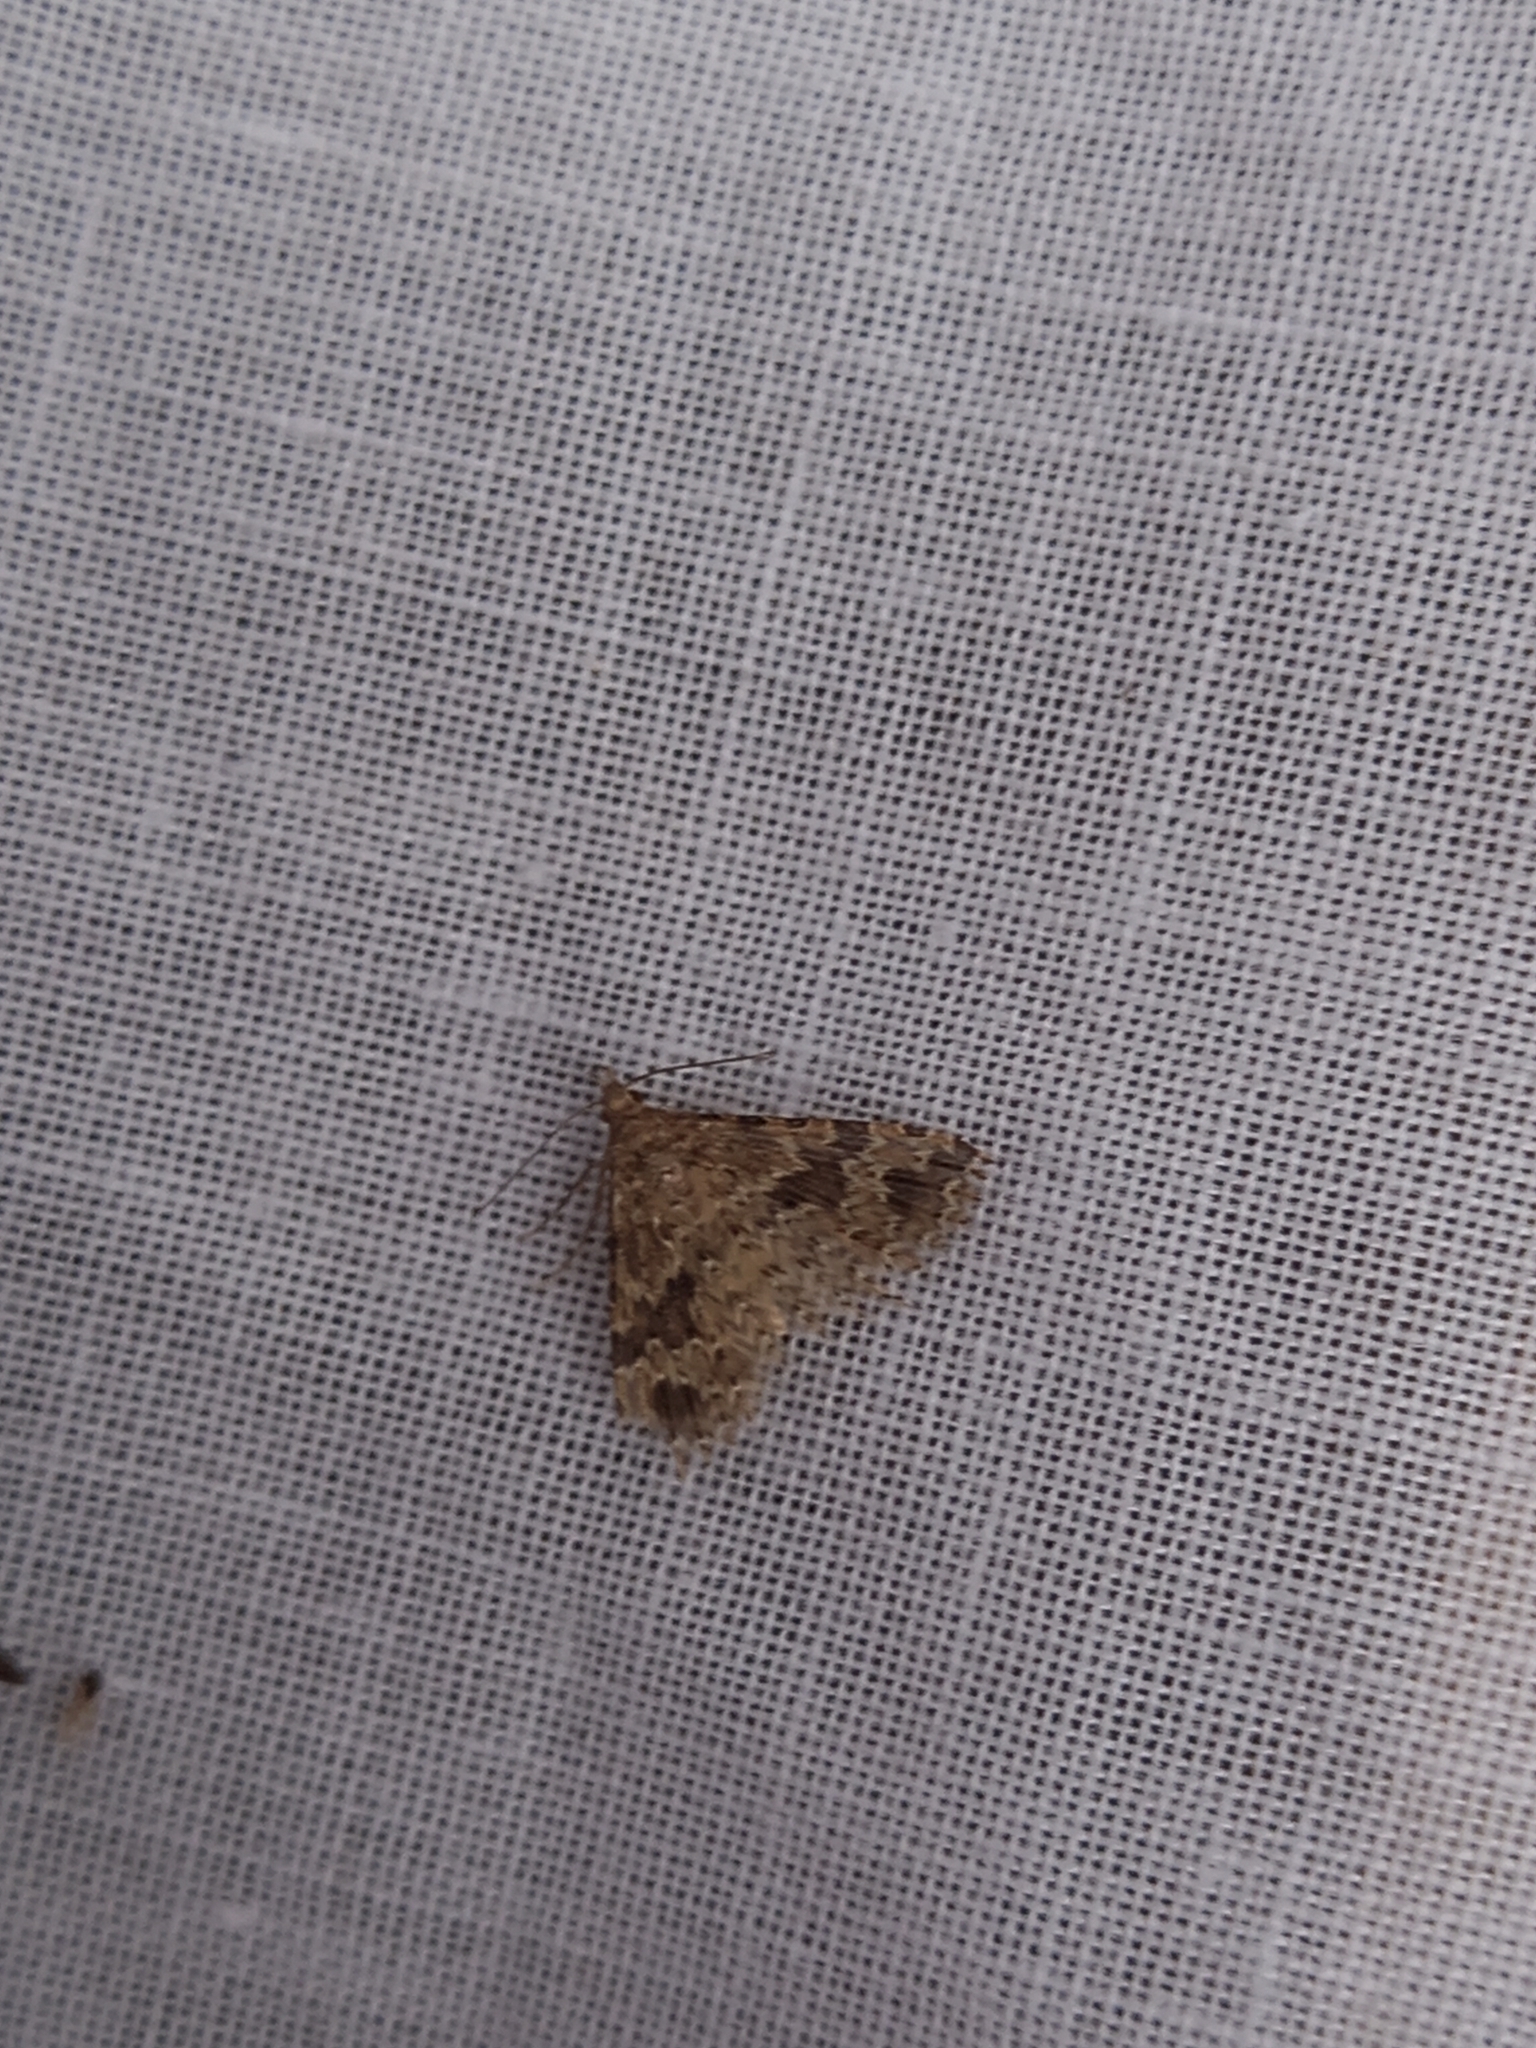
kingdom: Animalia
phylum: Arthropoda
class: Insecta
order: Lepidoptera
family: Alucitidae
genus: Alucita
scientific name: Alucita hexadactyla
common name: Twenty-plume moth
